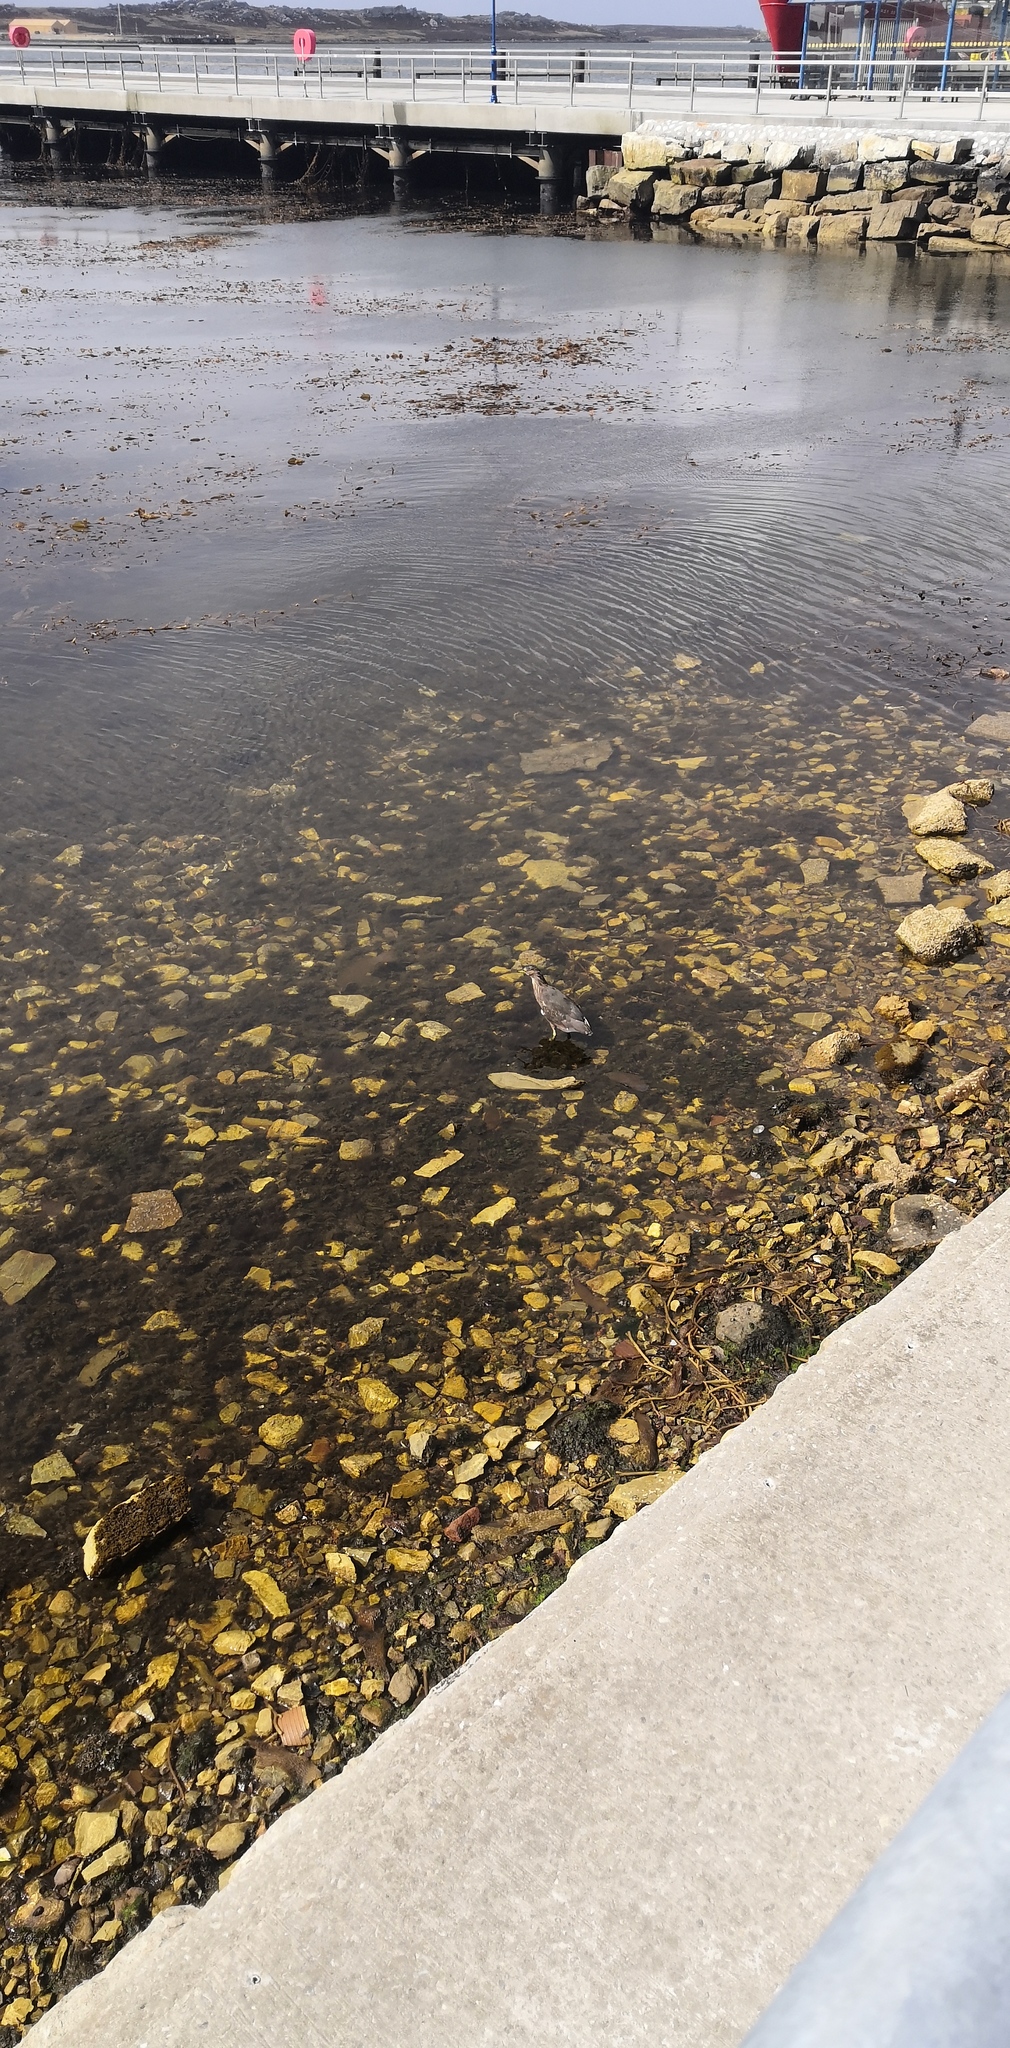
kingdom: Animalia
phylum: Chordata
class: Aves
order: Pelecaniformes
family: Ardeidae
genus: Nycticorax
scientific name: Nycticorax nycticorax
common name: Black-crowned night heron
